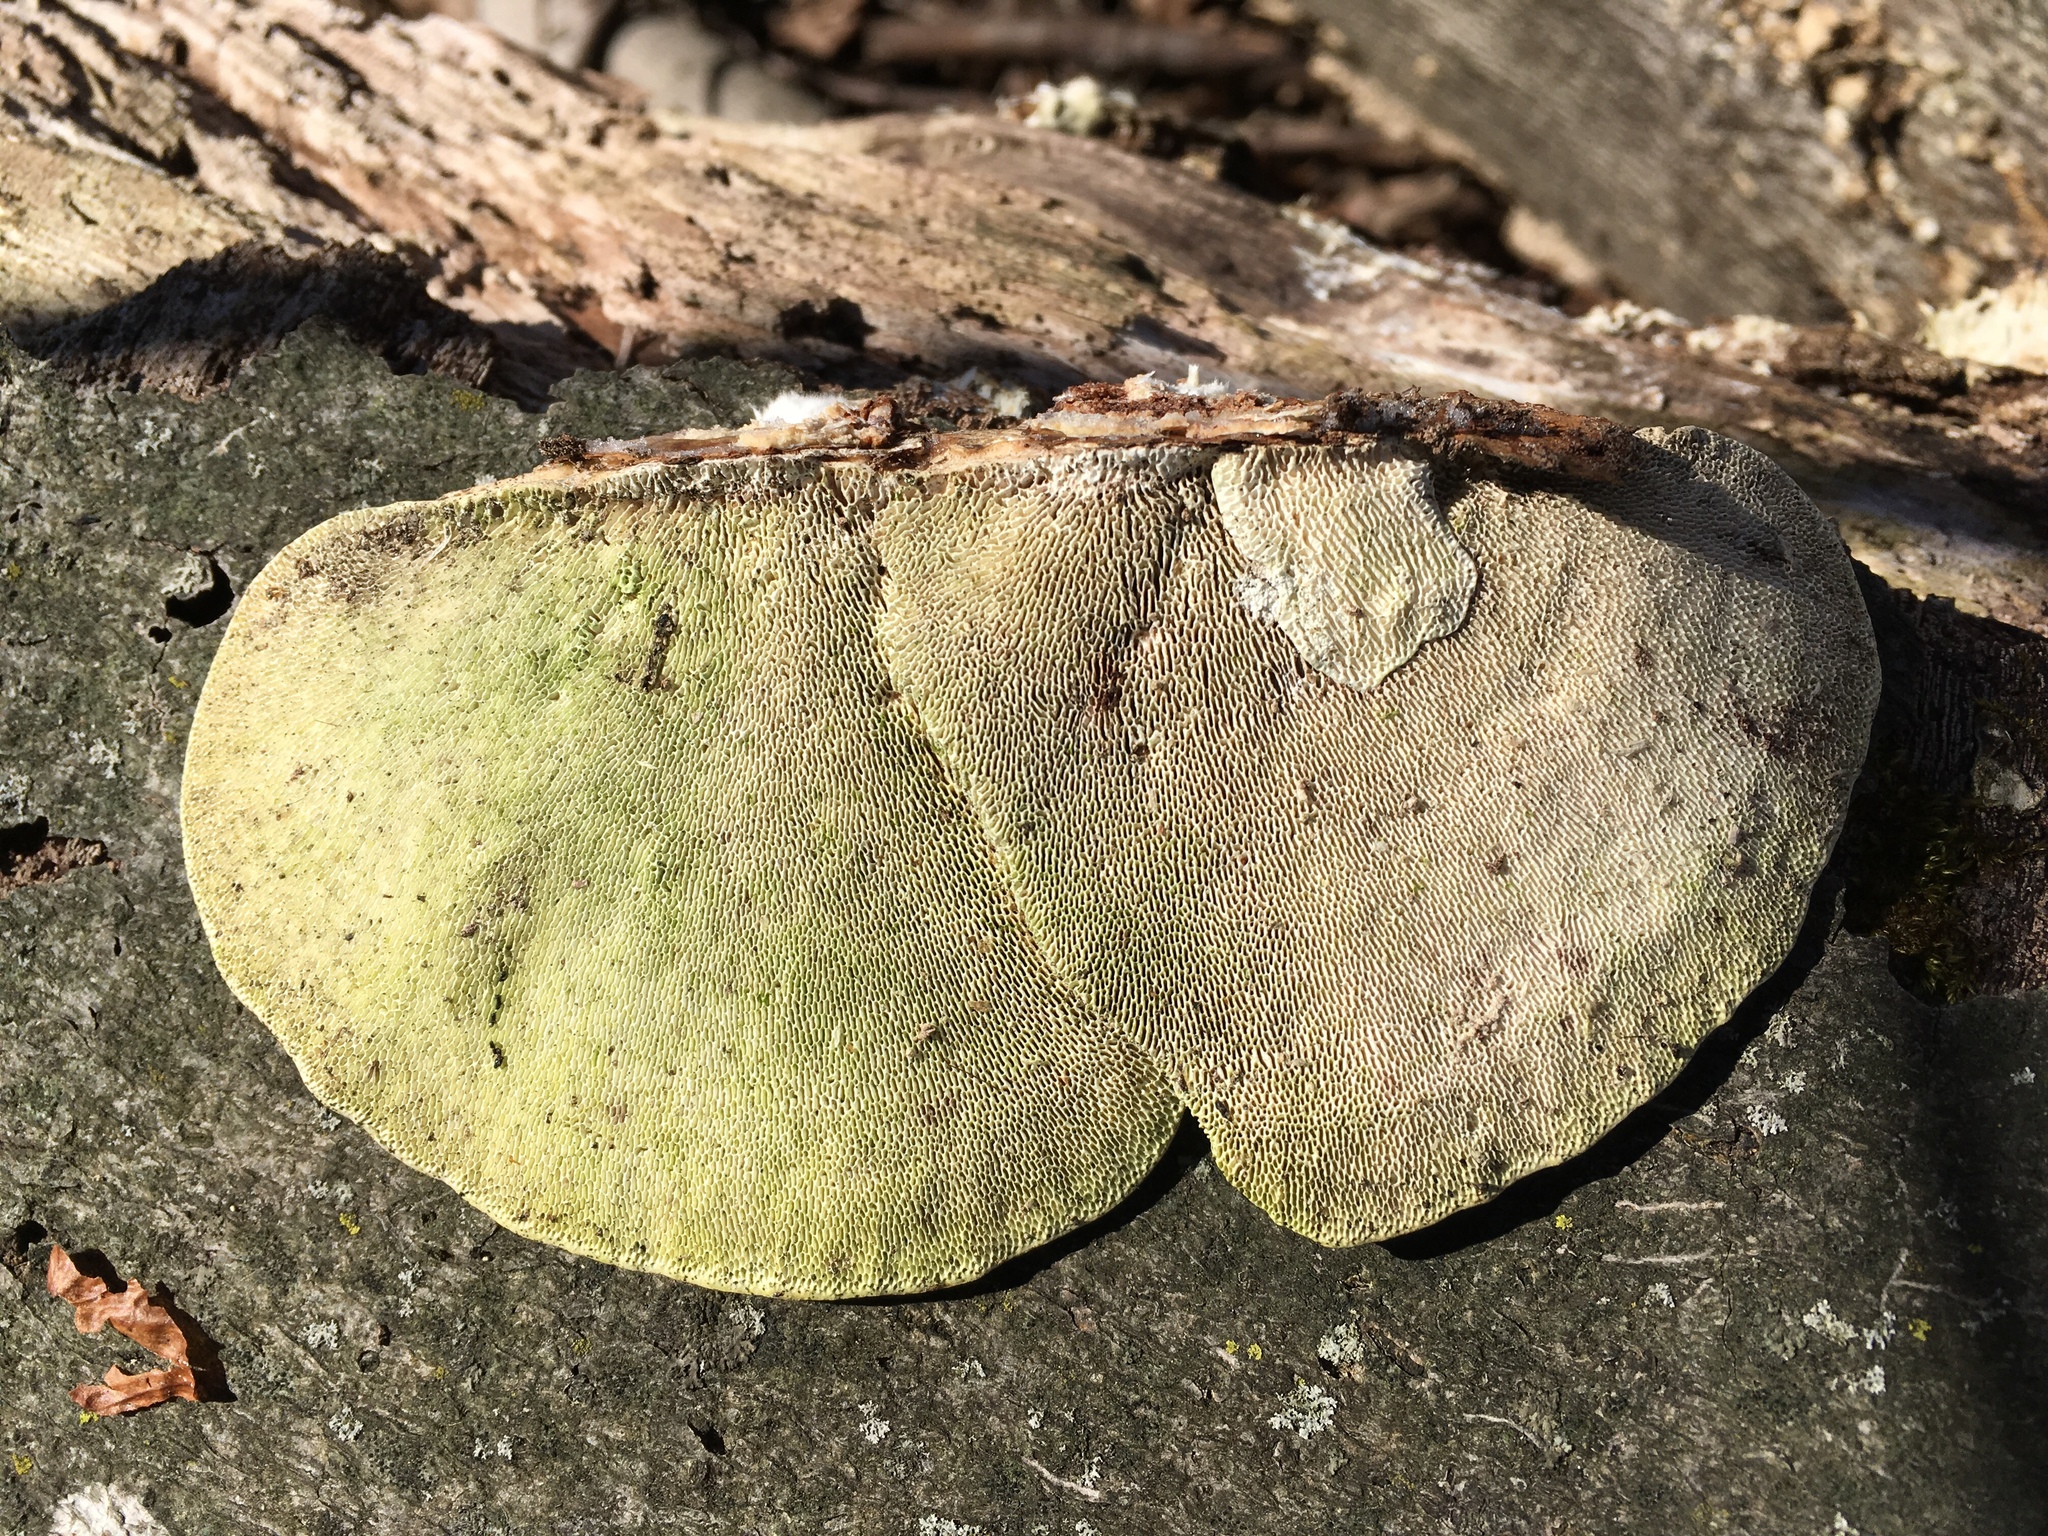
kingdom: Fungi
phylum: Basidiomycota
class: Agaricomycetes
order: Polyporales
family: Polyporaceae
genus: Trametes
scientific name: Trametes gibbosa
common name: Lumpy bracket
